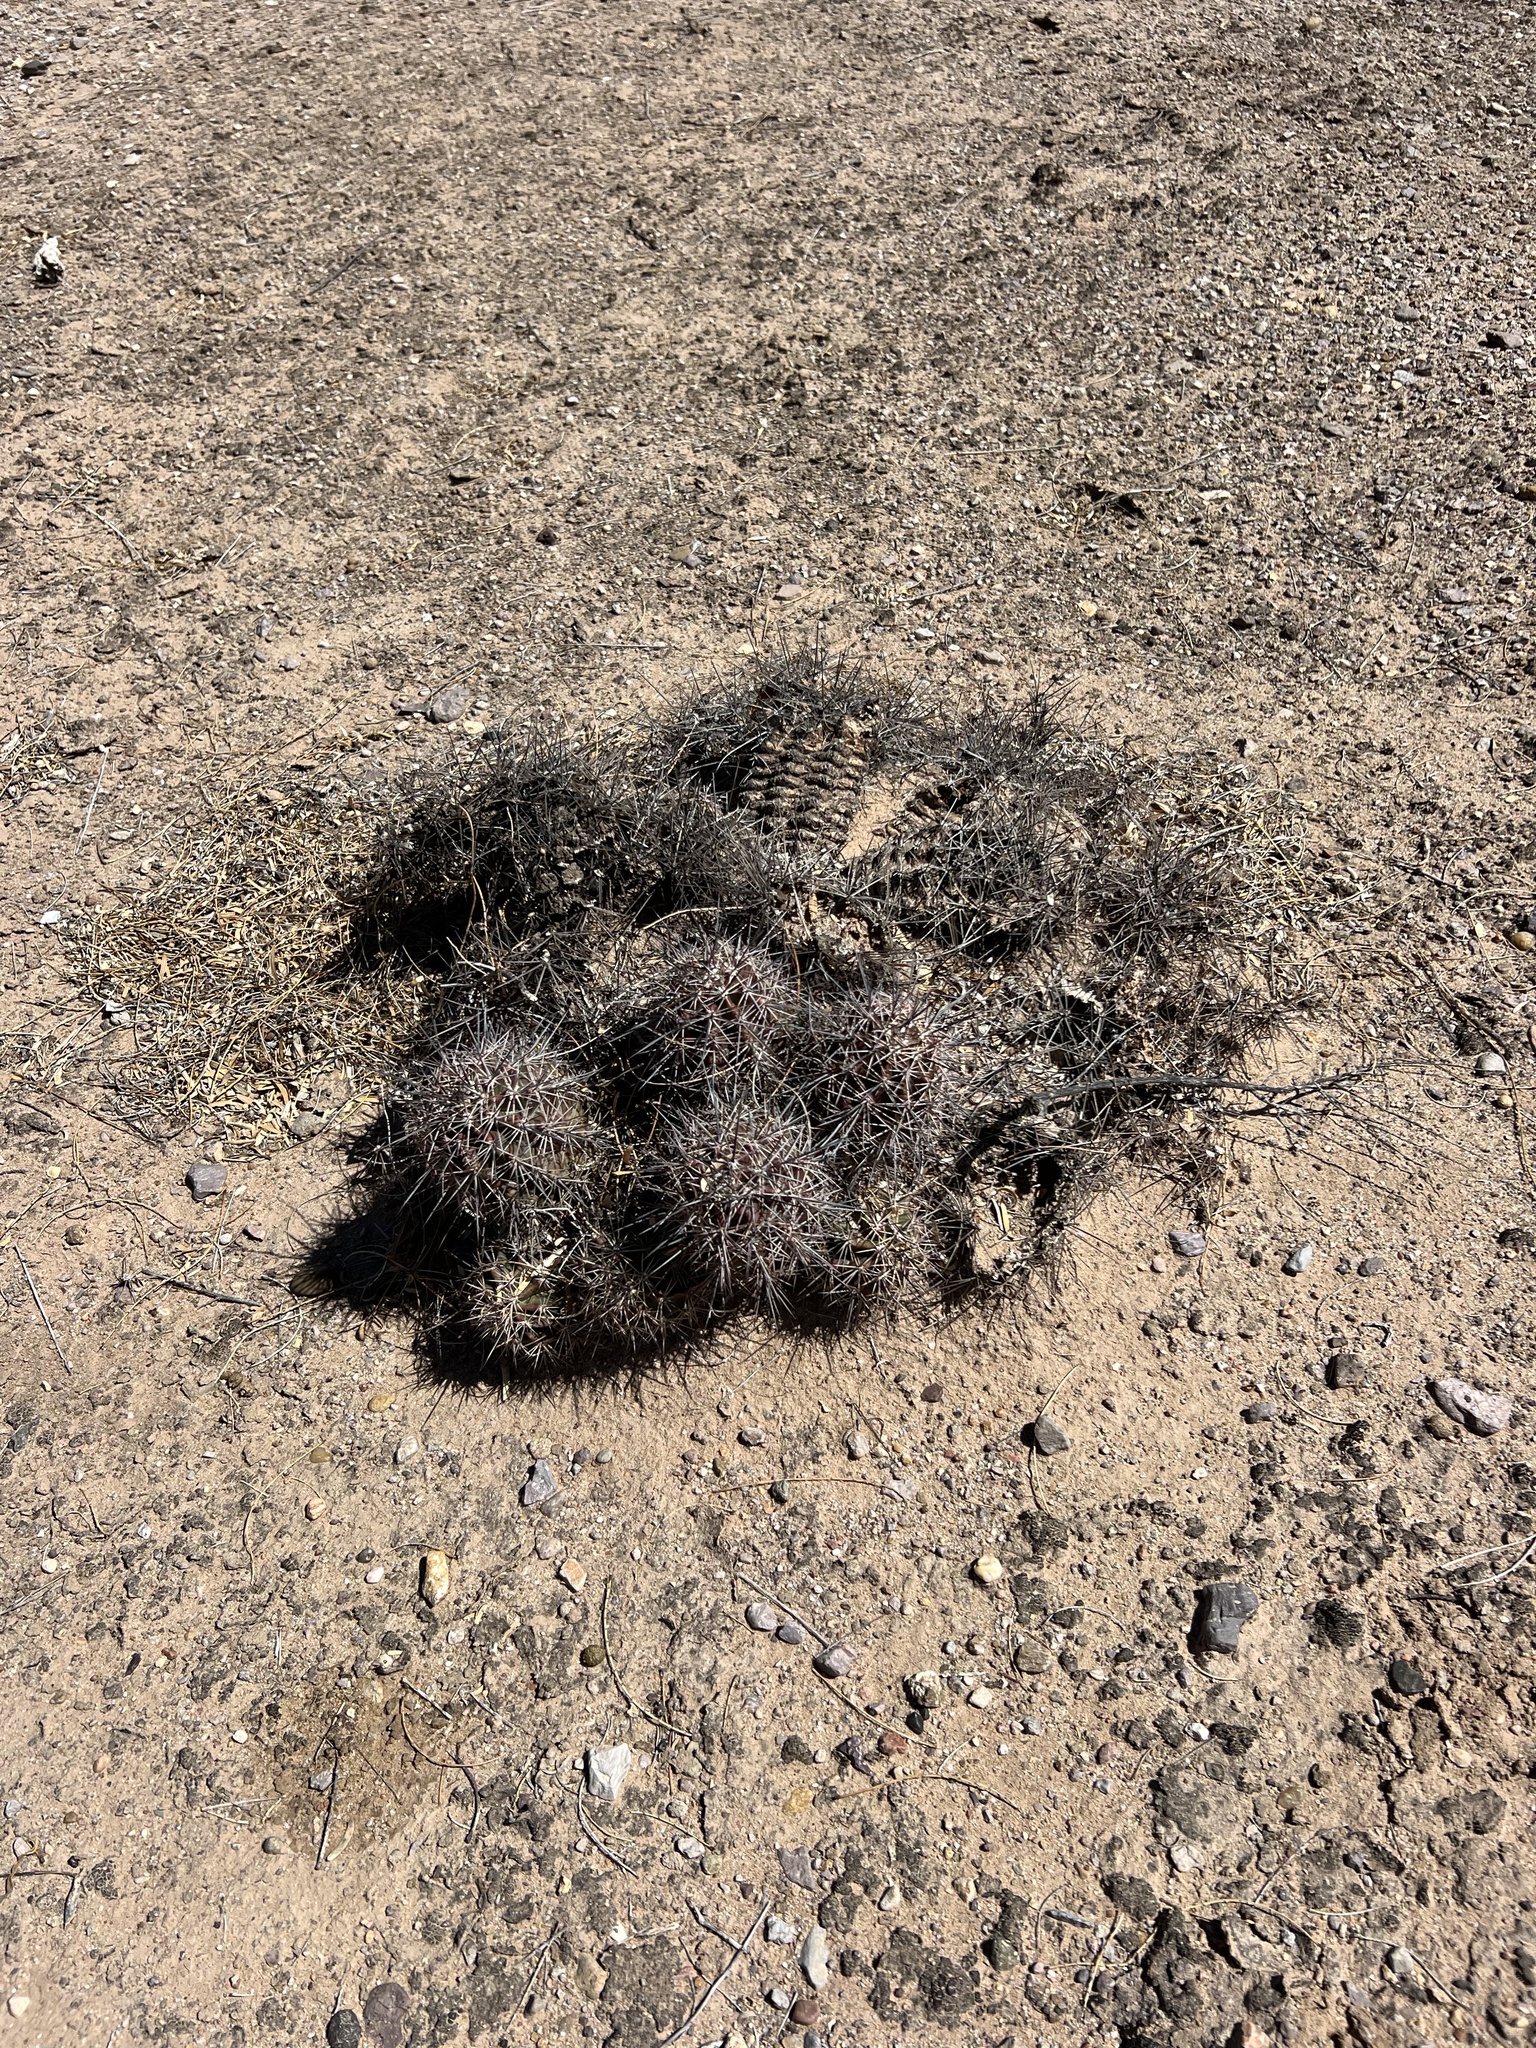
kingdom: Plantae
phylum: Tracheophyta
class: Magnoliopsida
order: Caryophyllales
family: Cactaceae
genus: Echinocereus
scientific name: Echinocereus coccineus
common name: Scarlet hedgehog cactus
